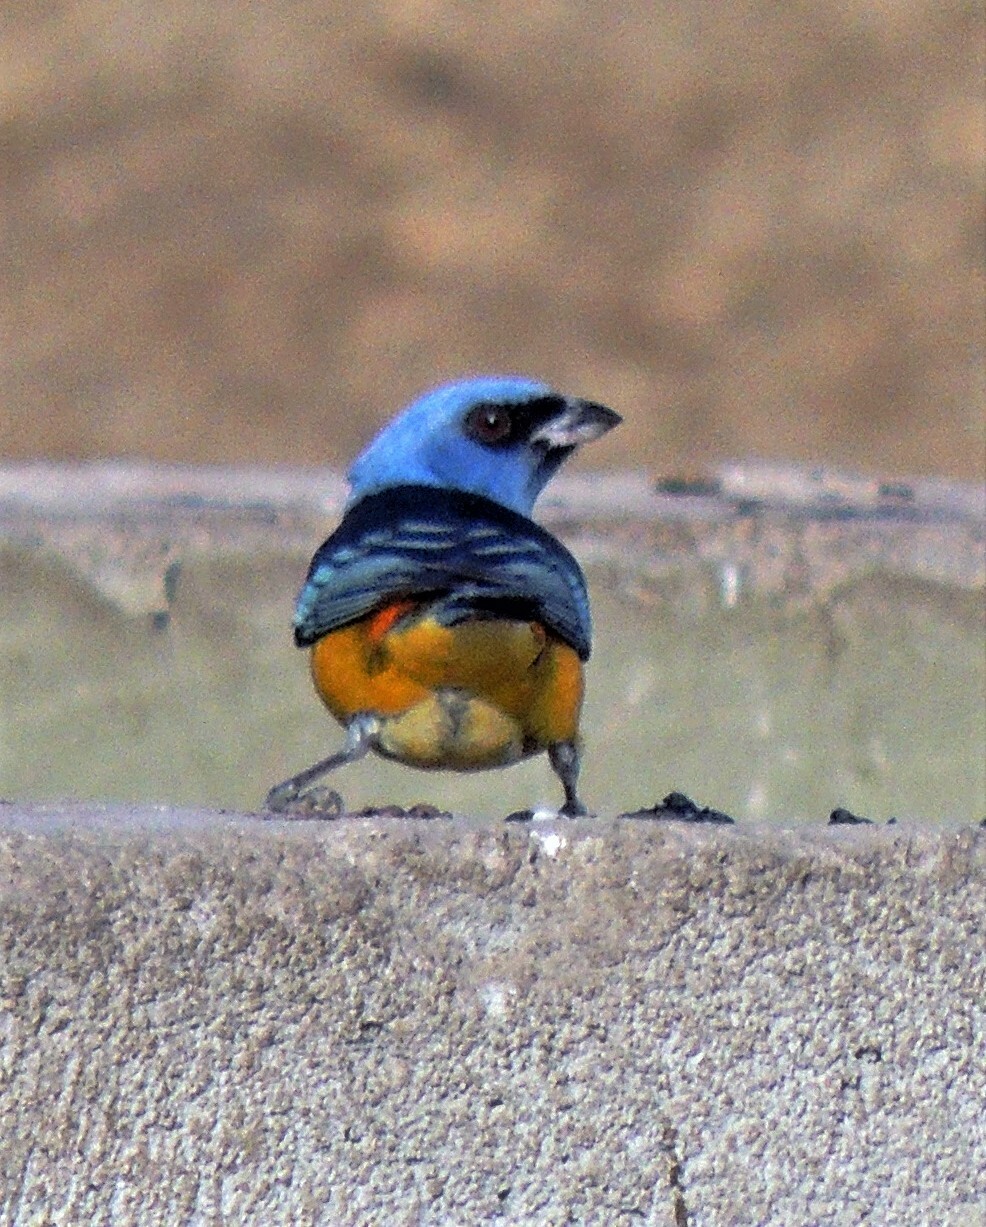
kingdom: Animalia
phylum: Chordata
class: Aves
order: Passeriformes
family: Thraupidae
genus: Rauenia
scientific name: Rauenia bonariensis
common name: Blue-and-yellow tanager
